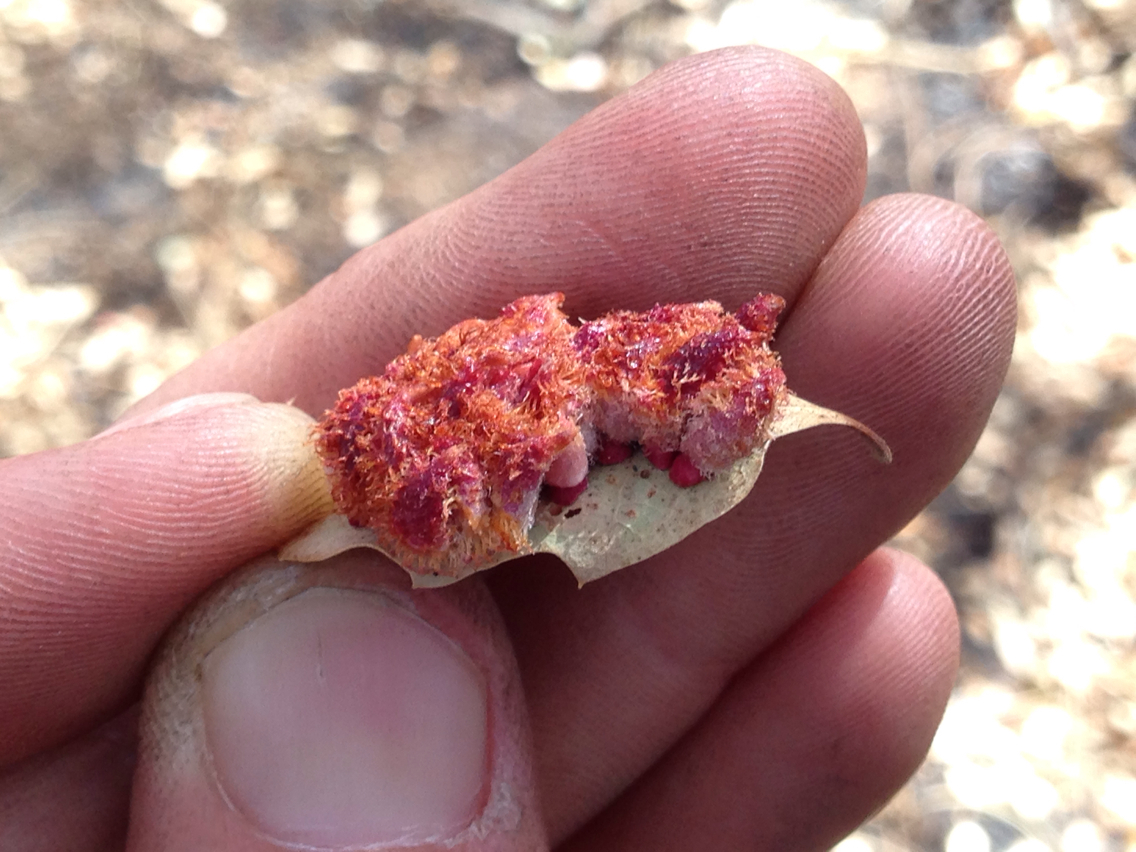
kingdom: Animalia
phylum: Arthropoda
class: Insecta
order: Hymenoptera
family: Cynipidae
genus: Andricus
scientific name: Andricus
